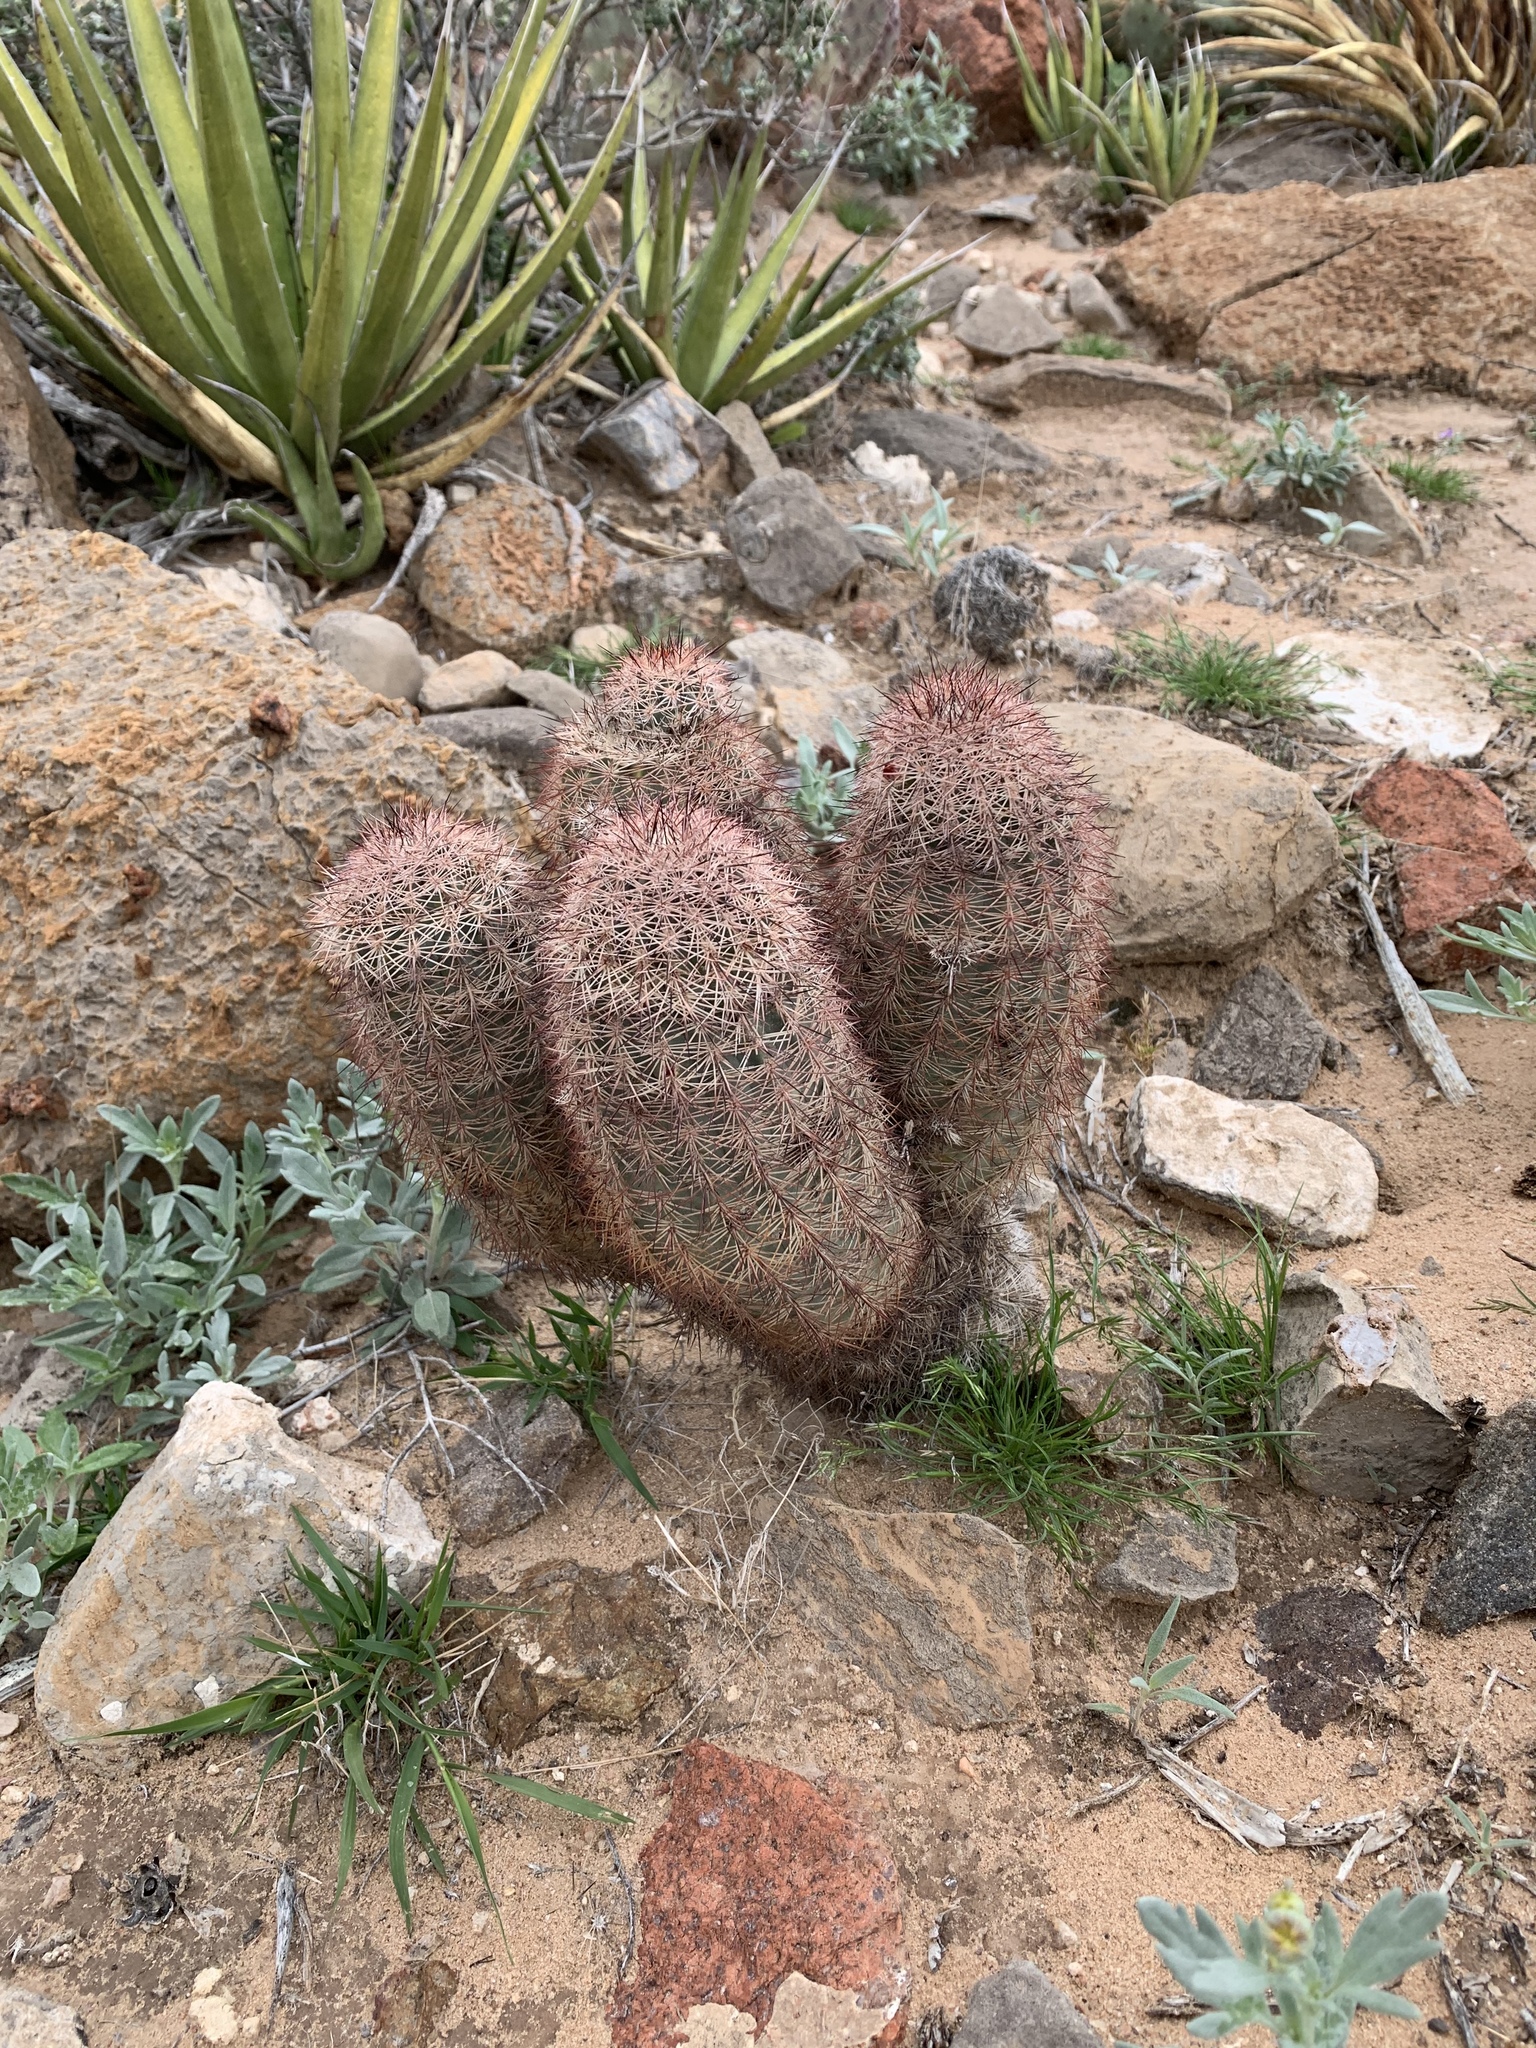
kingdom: Plantae
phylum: Tracheophyta
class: Magnoliopsida
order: Caryophyllales
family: Cactaceae
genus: Echinocereus
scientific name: Echinocereus dasyacanthus
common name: Spiny hedgehog cactus
